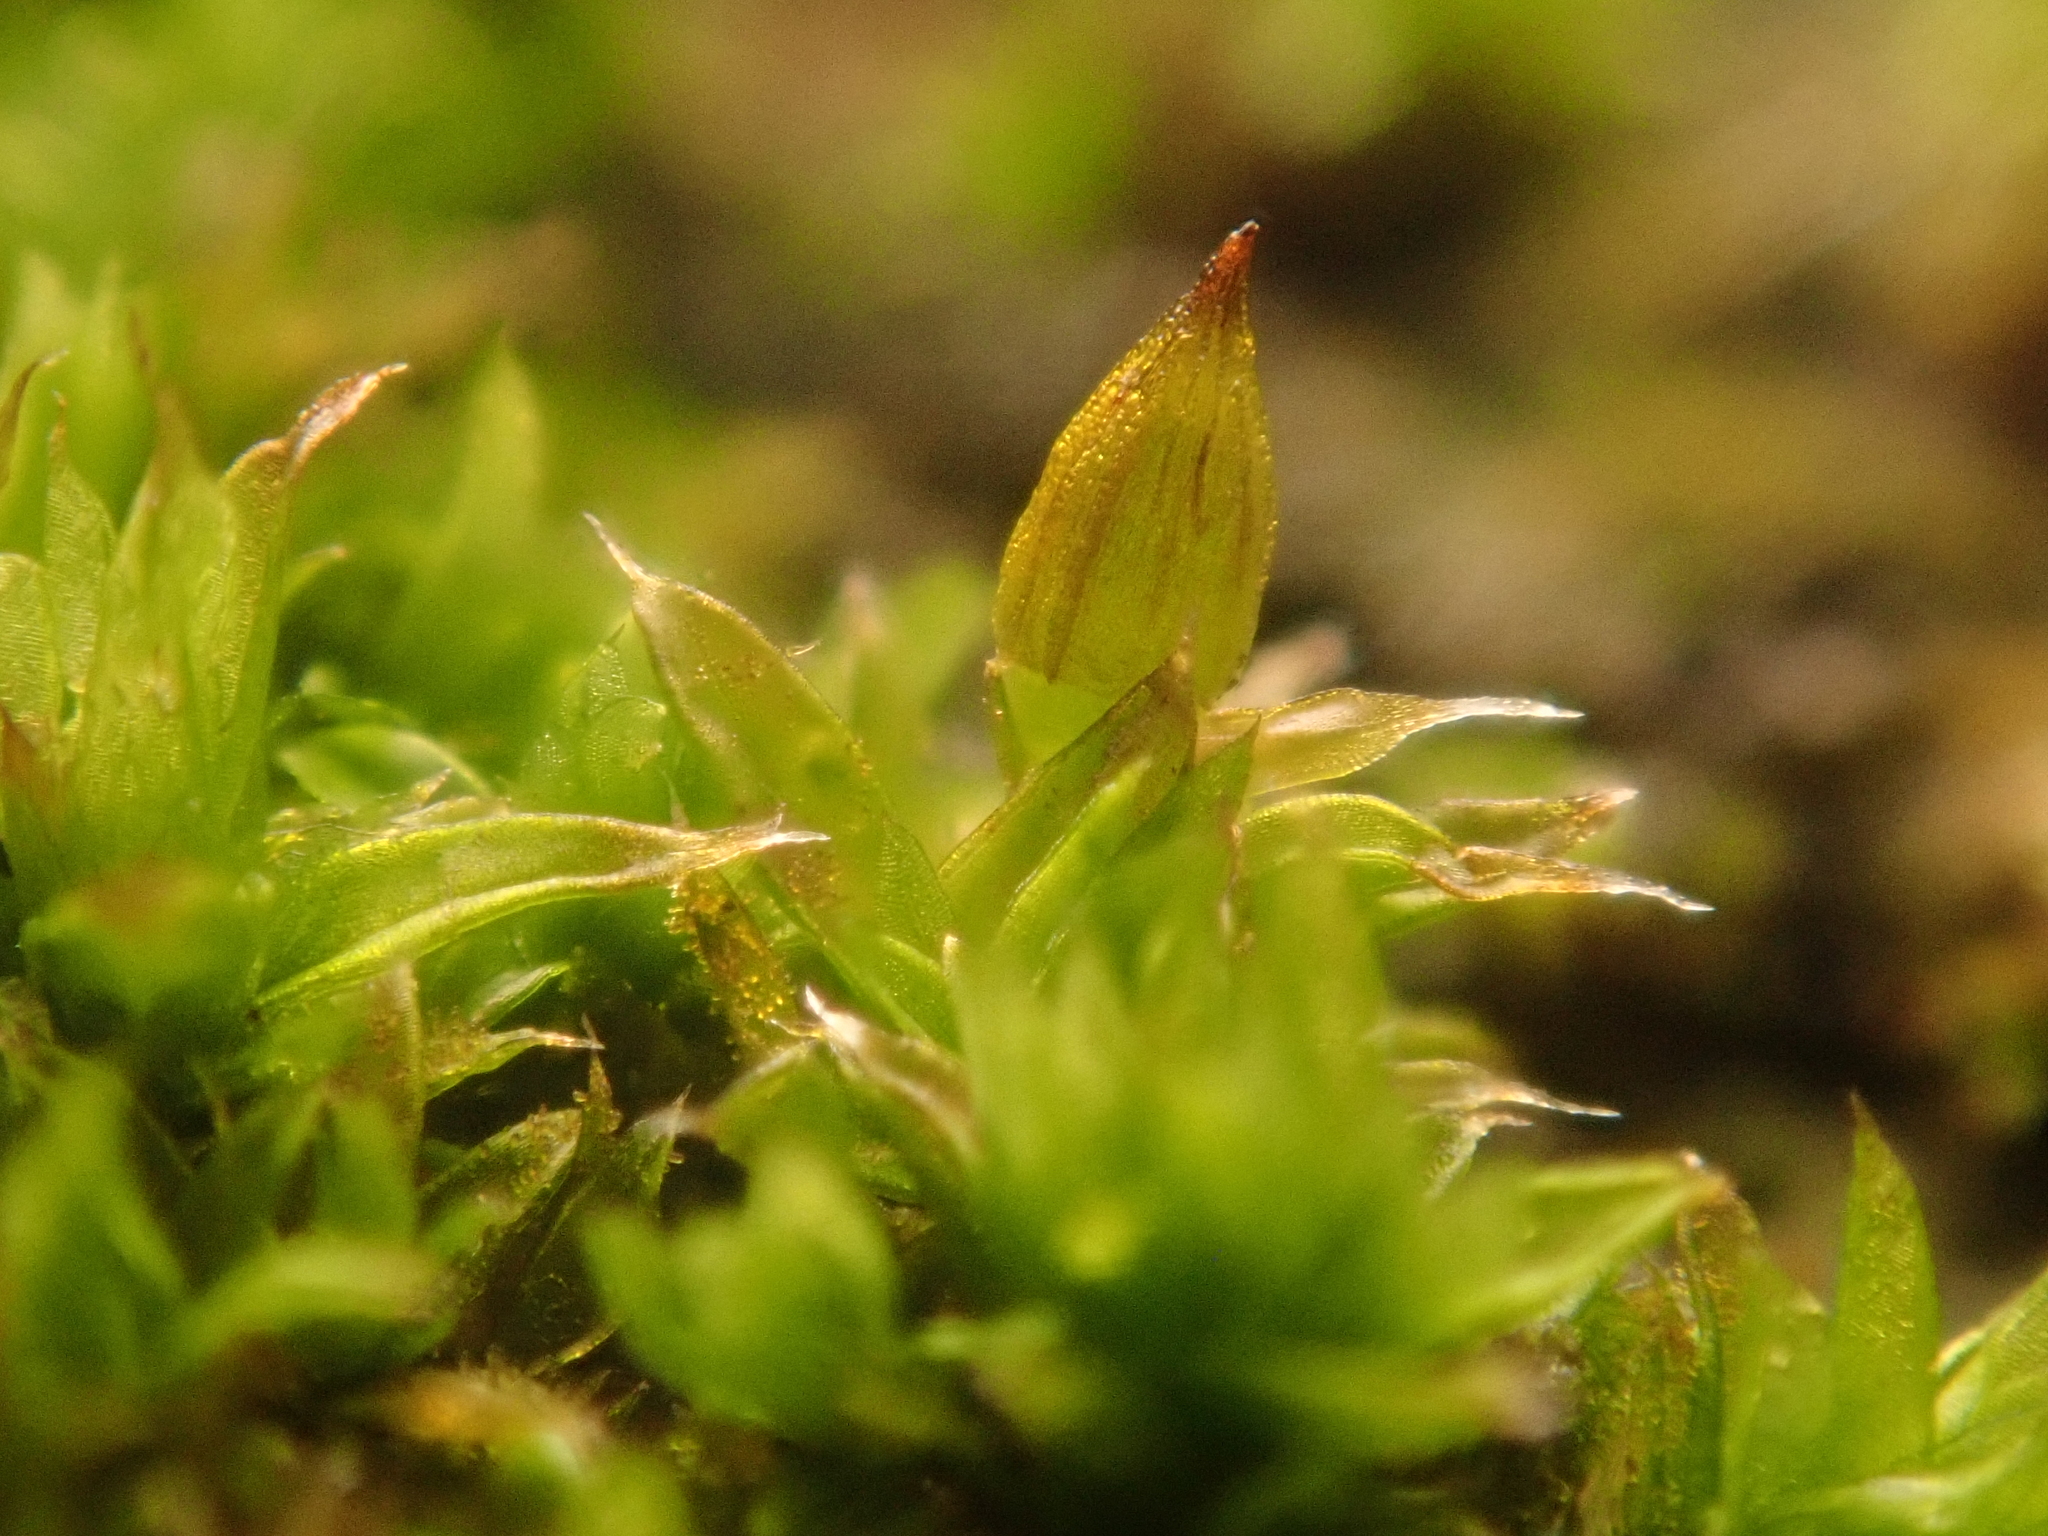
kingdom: Plantae
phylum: Bryophyta
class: Bryopsida
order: Orthotrichales
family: Orthotrichaceae
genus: Orthotrichum
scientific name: Orthotrichum diaphanum
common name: White-tipped bristle-moss
